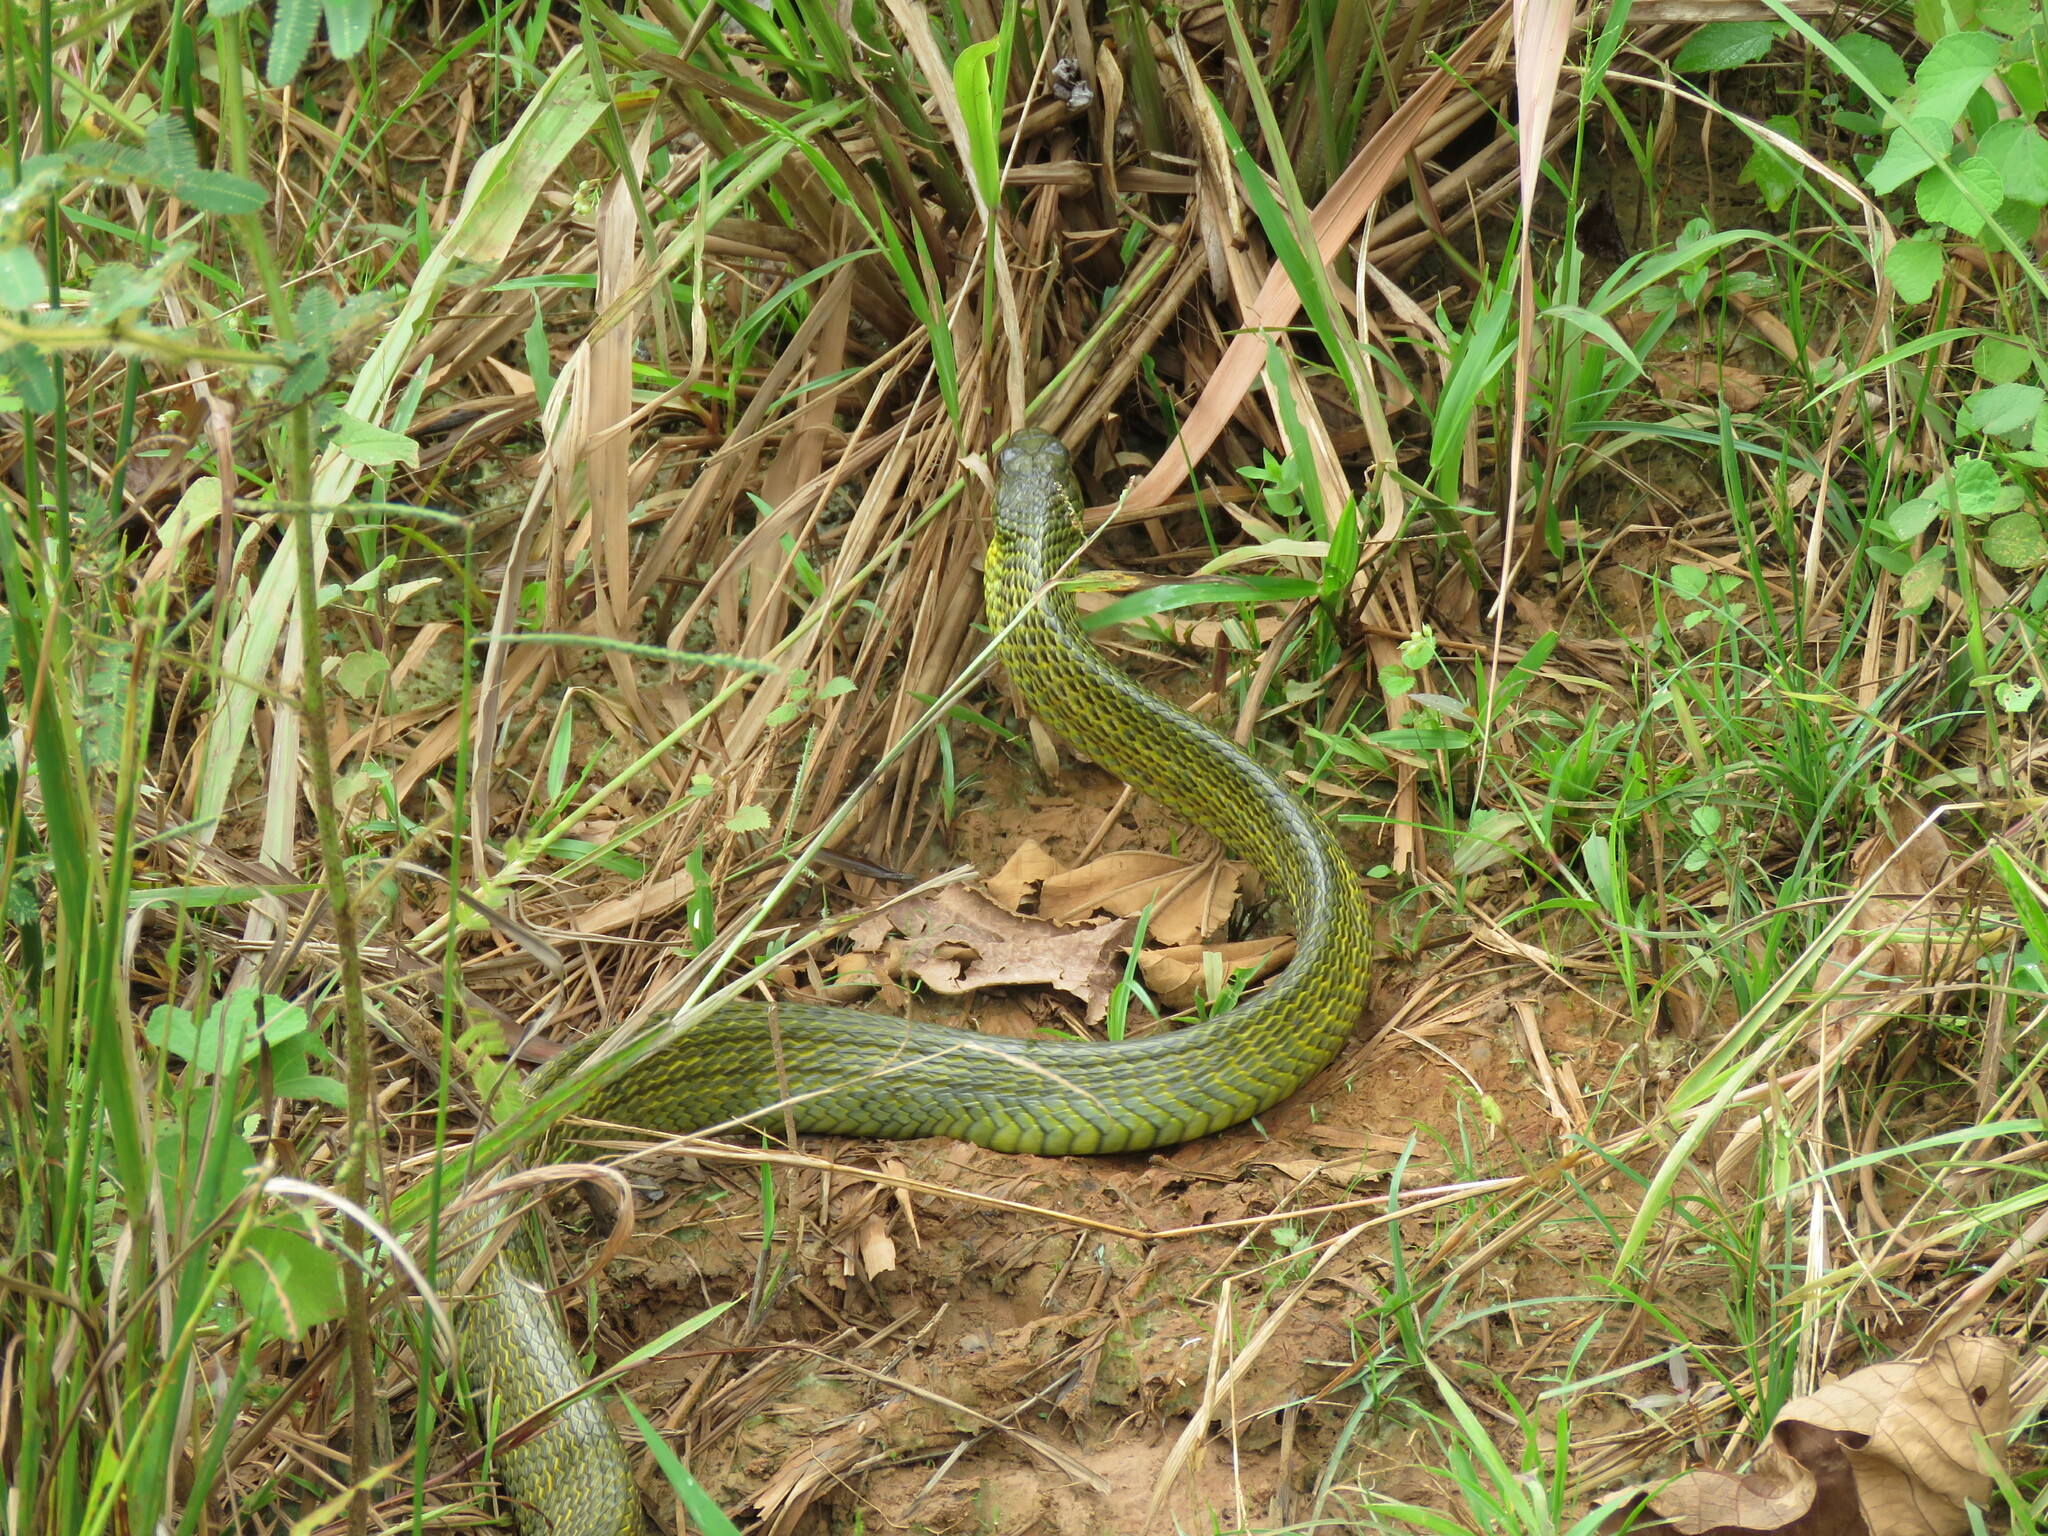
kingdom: Animalia
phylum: Chordata
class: Squamata
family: Colubridae
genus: Spilotes
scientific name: Spilotes sulphureus
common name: Amazon puffing snake
